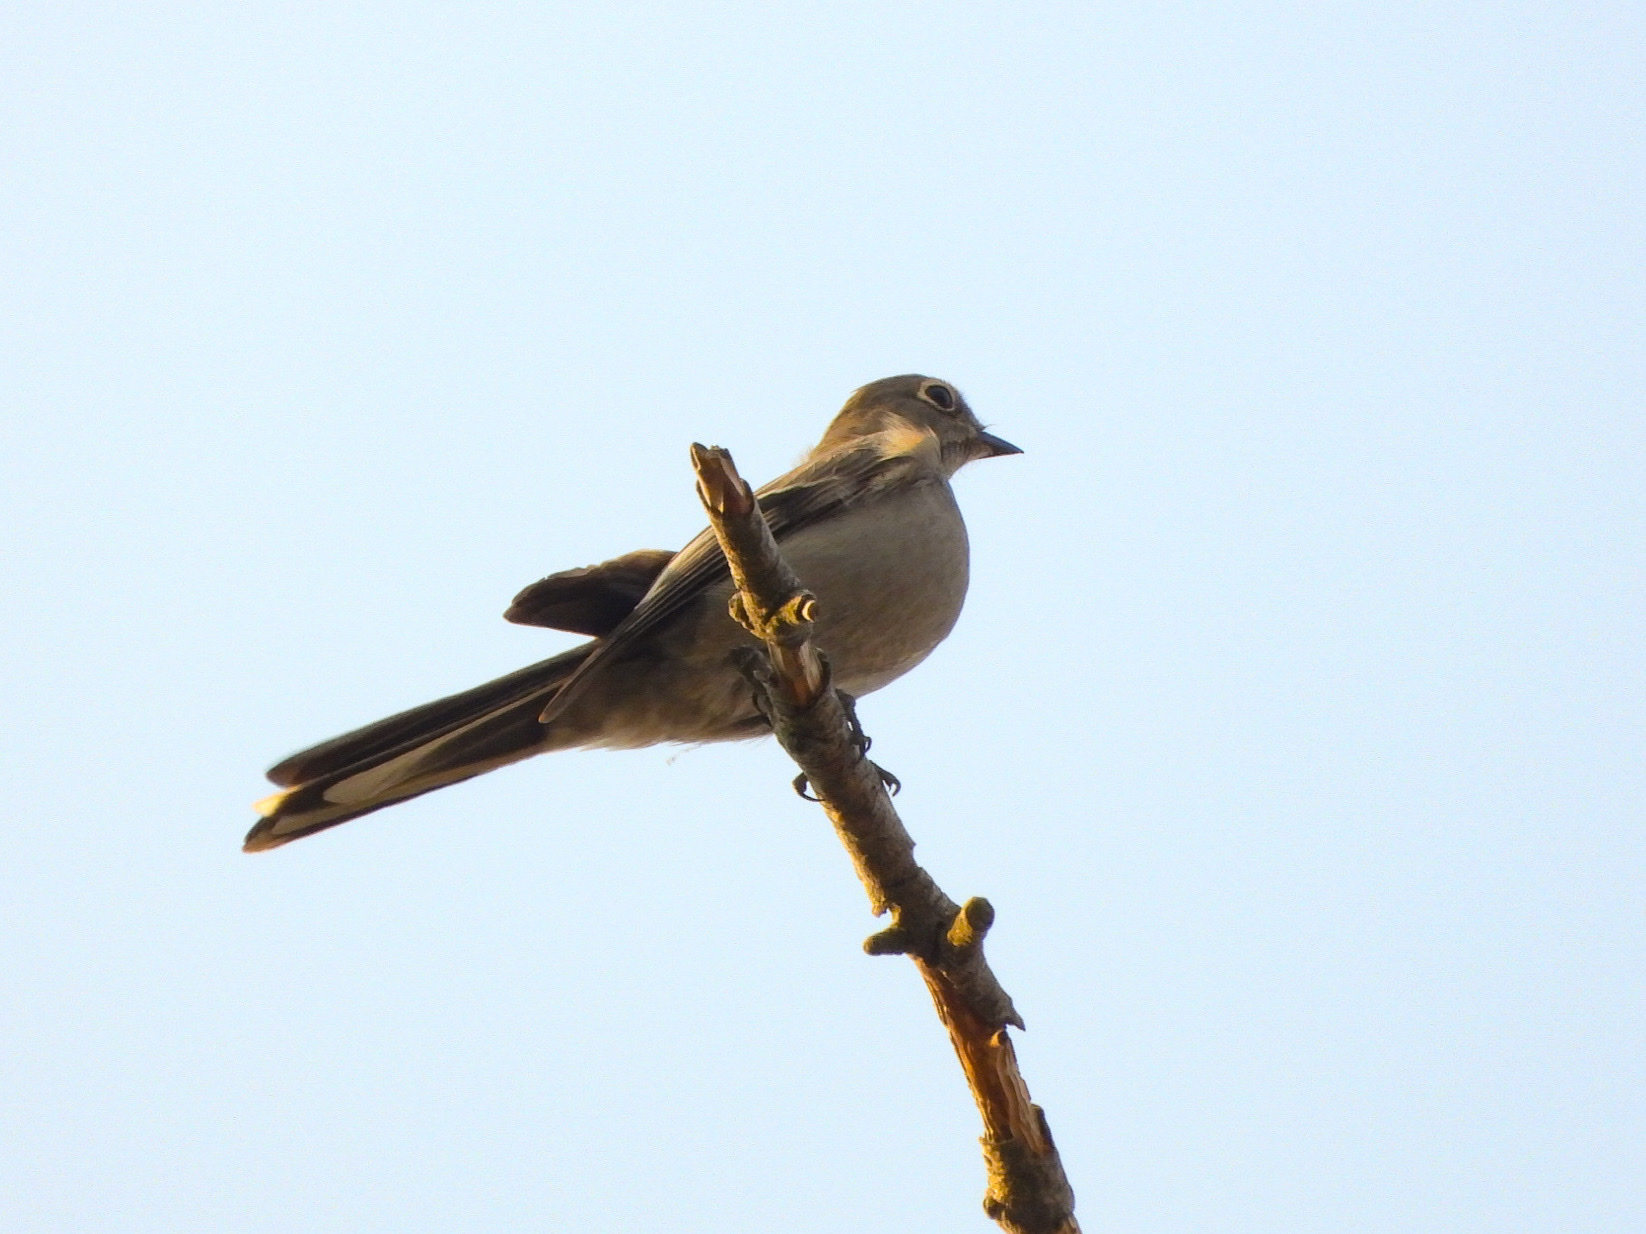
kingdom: Animalia
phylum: Chordata
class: Aves
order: Passeriformes
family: Turdidae
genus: Myadestes
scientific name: Myadestes townsendi
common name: Townsend's solitaire
